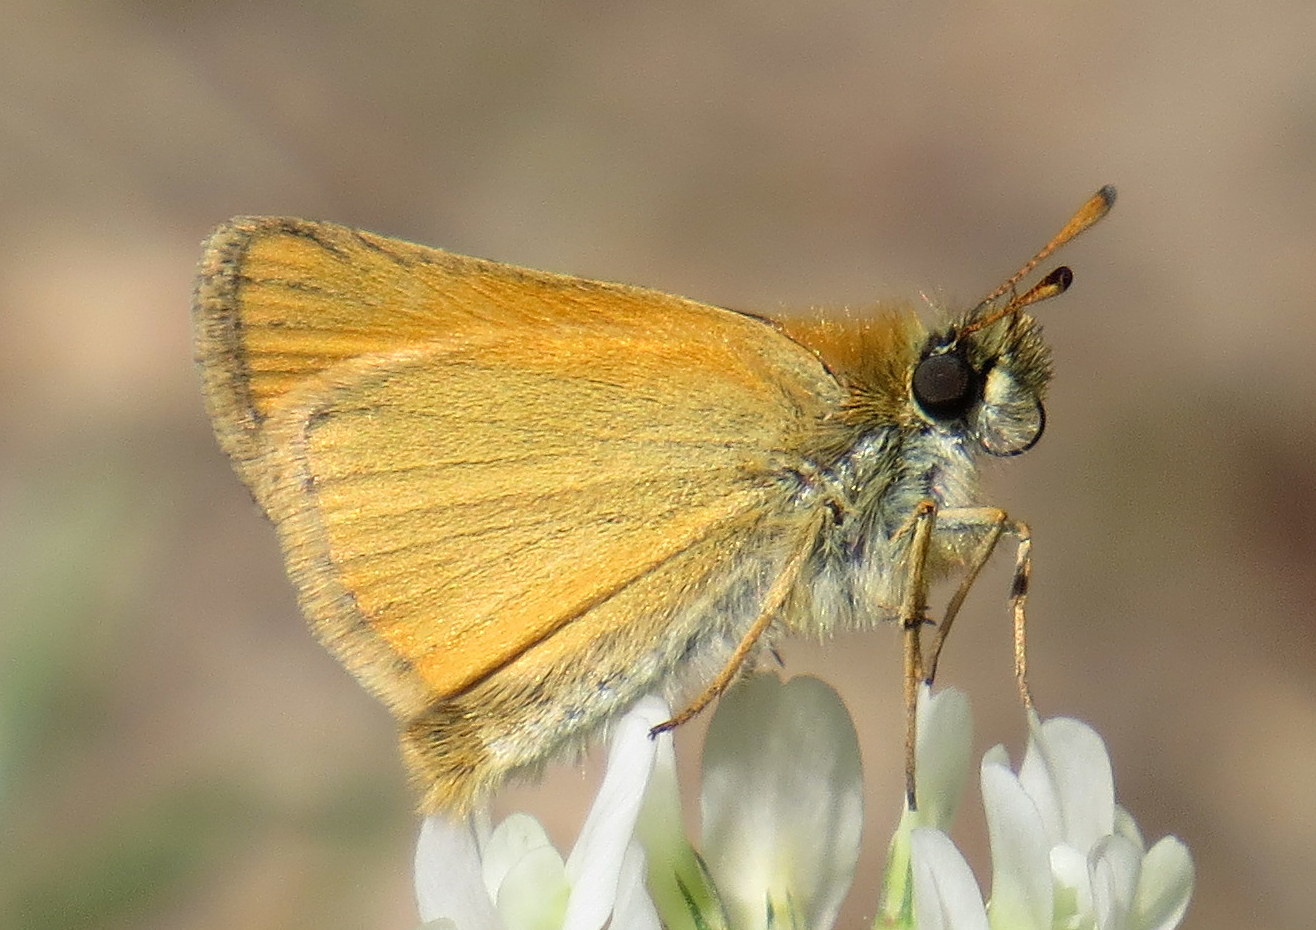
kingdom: Animalia
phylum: Arthropoda
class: Insecta
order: Lepidoptera
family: Hesperiidae
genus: Thymelicus
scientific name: Thymelicus lineola
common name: Essex skipper
